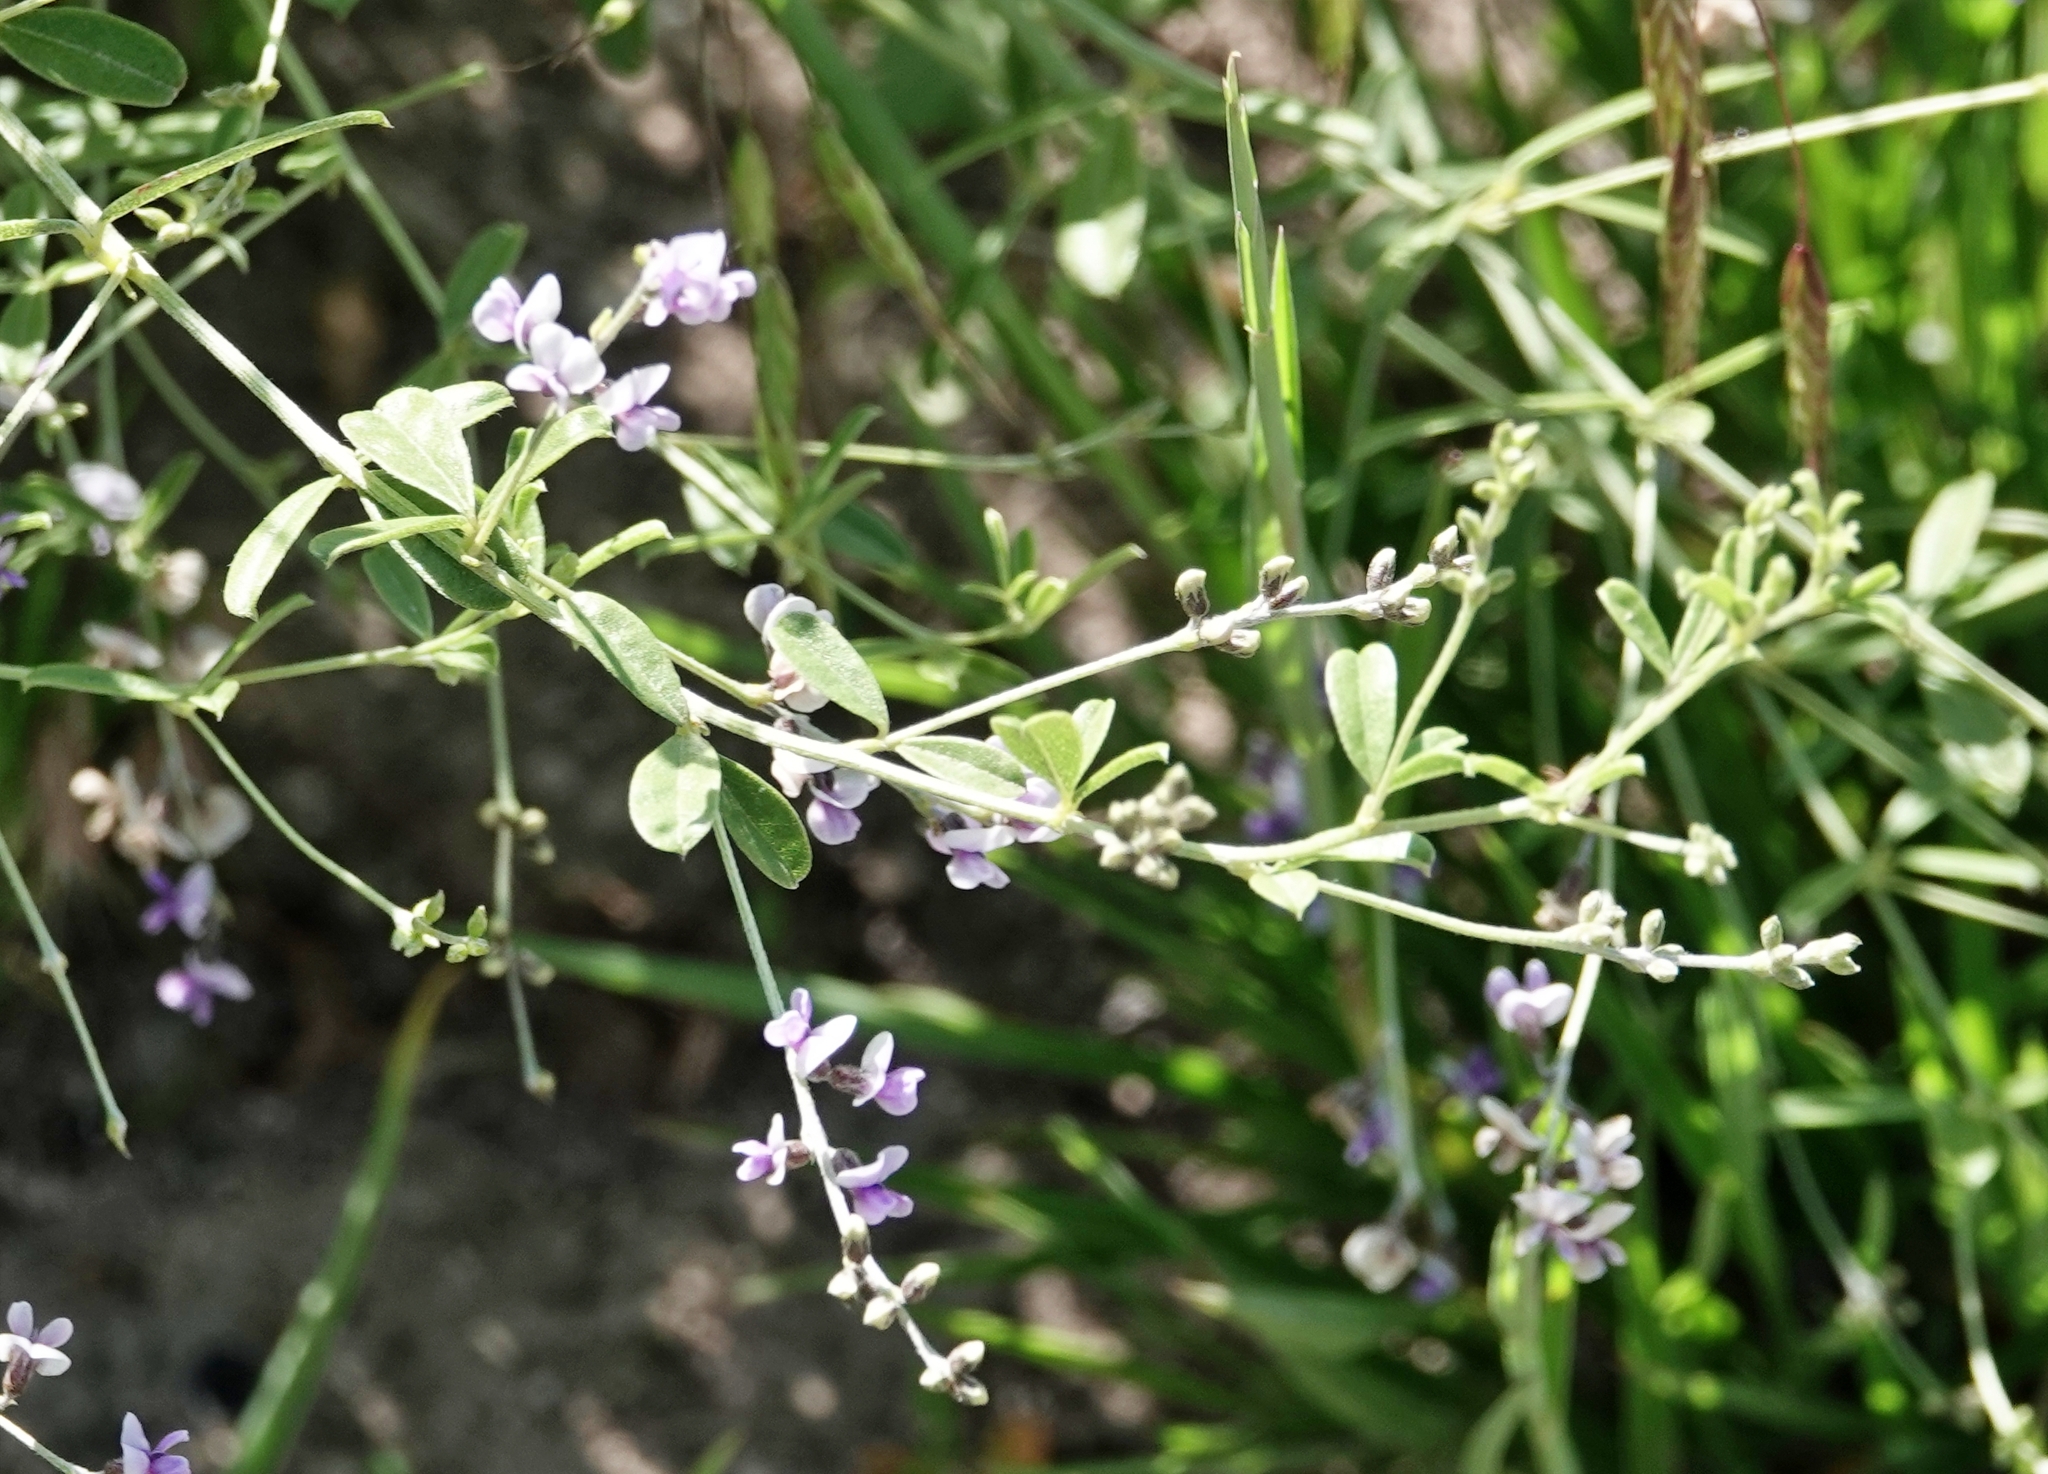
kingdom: Plantae
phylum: Tracheophyta
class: Magnoliopsida
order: Fabales
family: Fabaceae
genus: Pediomelum
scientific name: Pediomelum tenuiflorum
